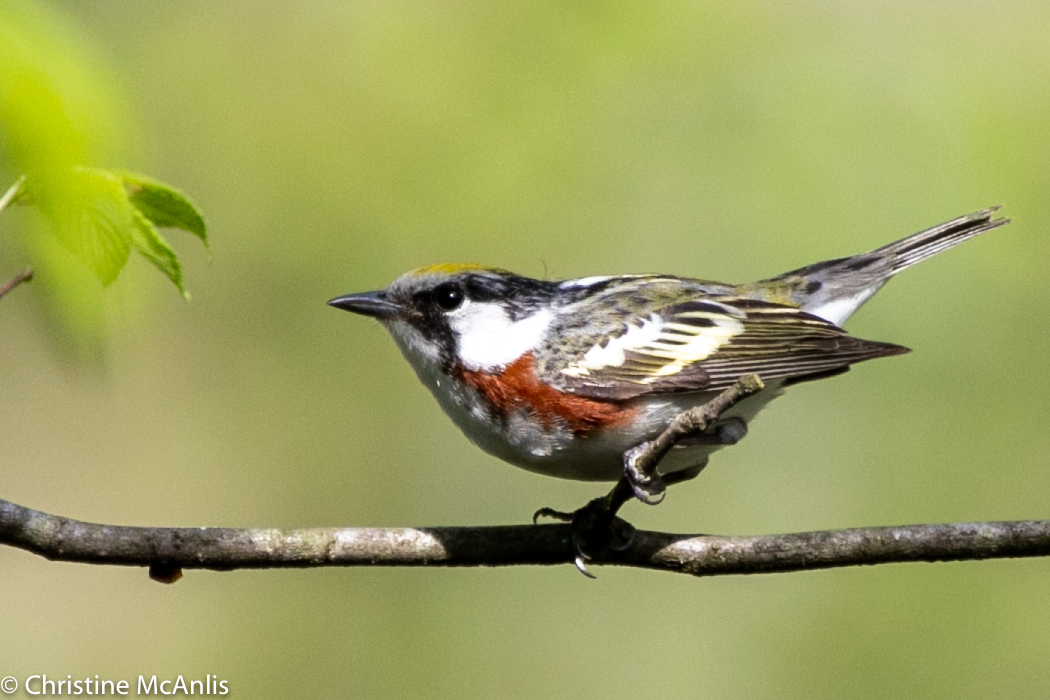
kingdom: Animalia
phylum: Chordata
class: Aves
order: Passeriformes
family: Parulidae
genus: Setophaga
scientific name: Setophaga pensylvanica
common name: Chestnut-sided warbler
